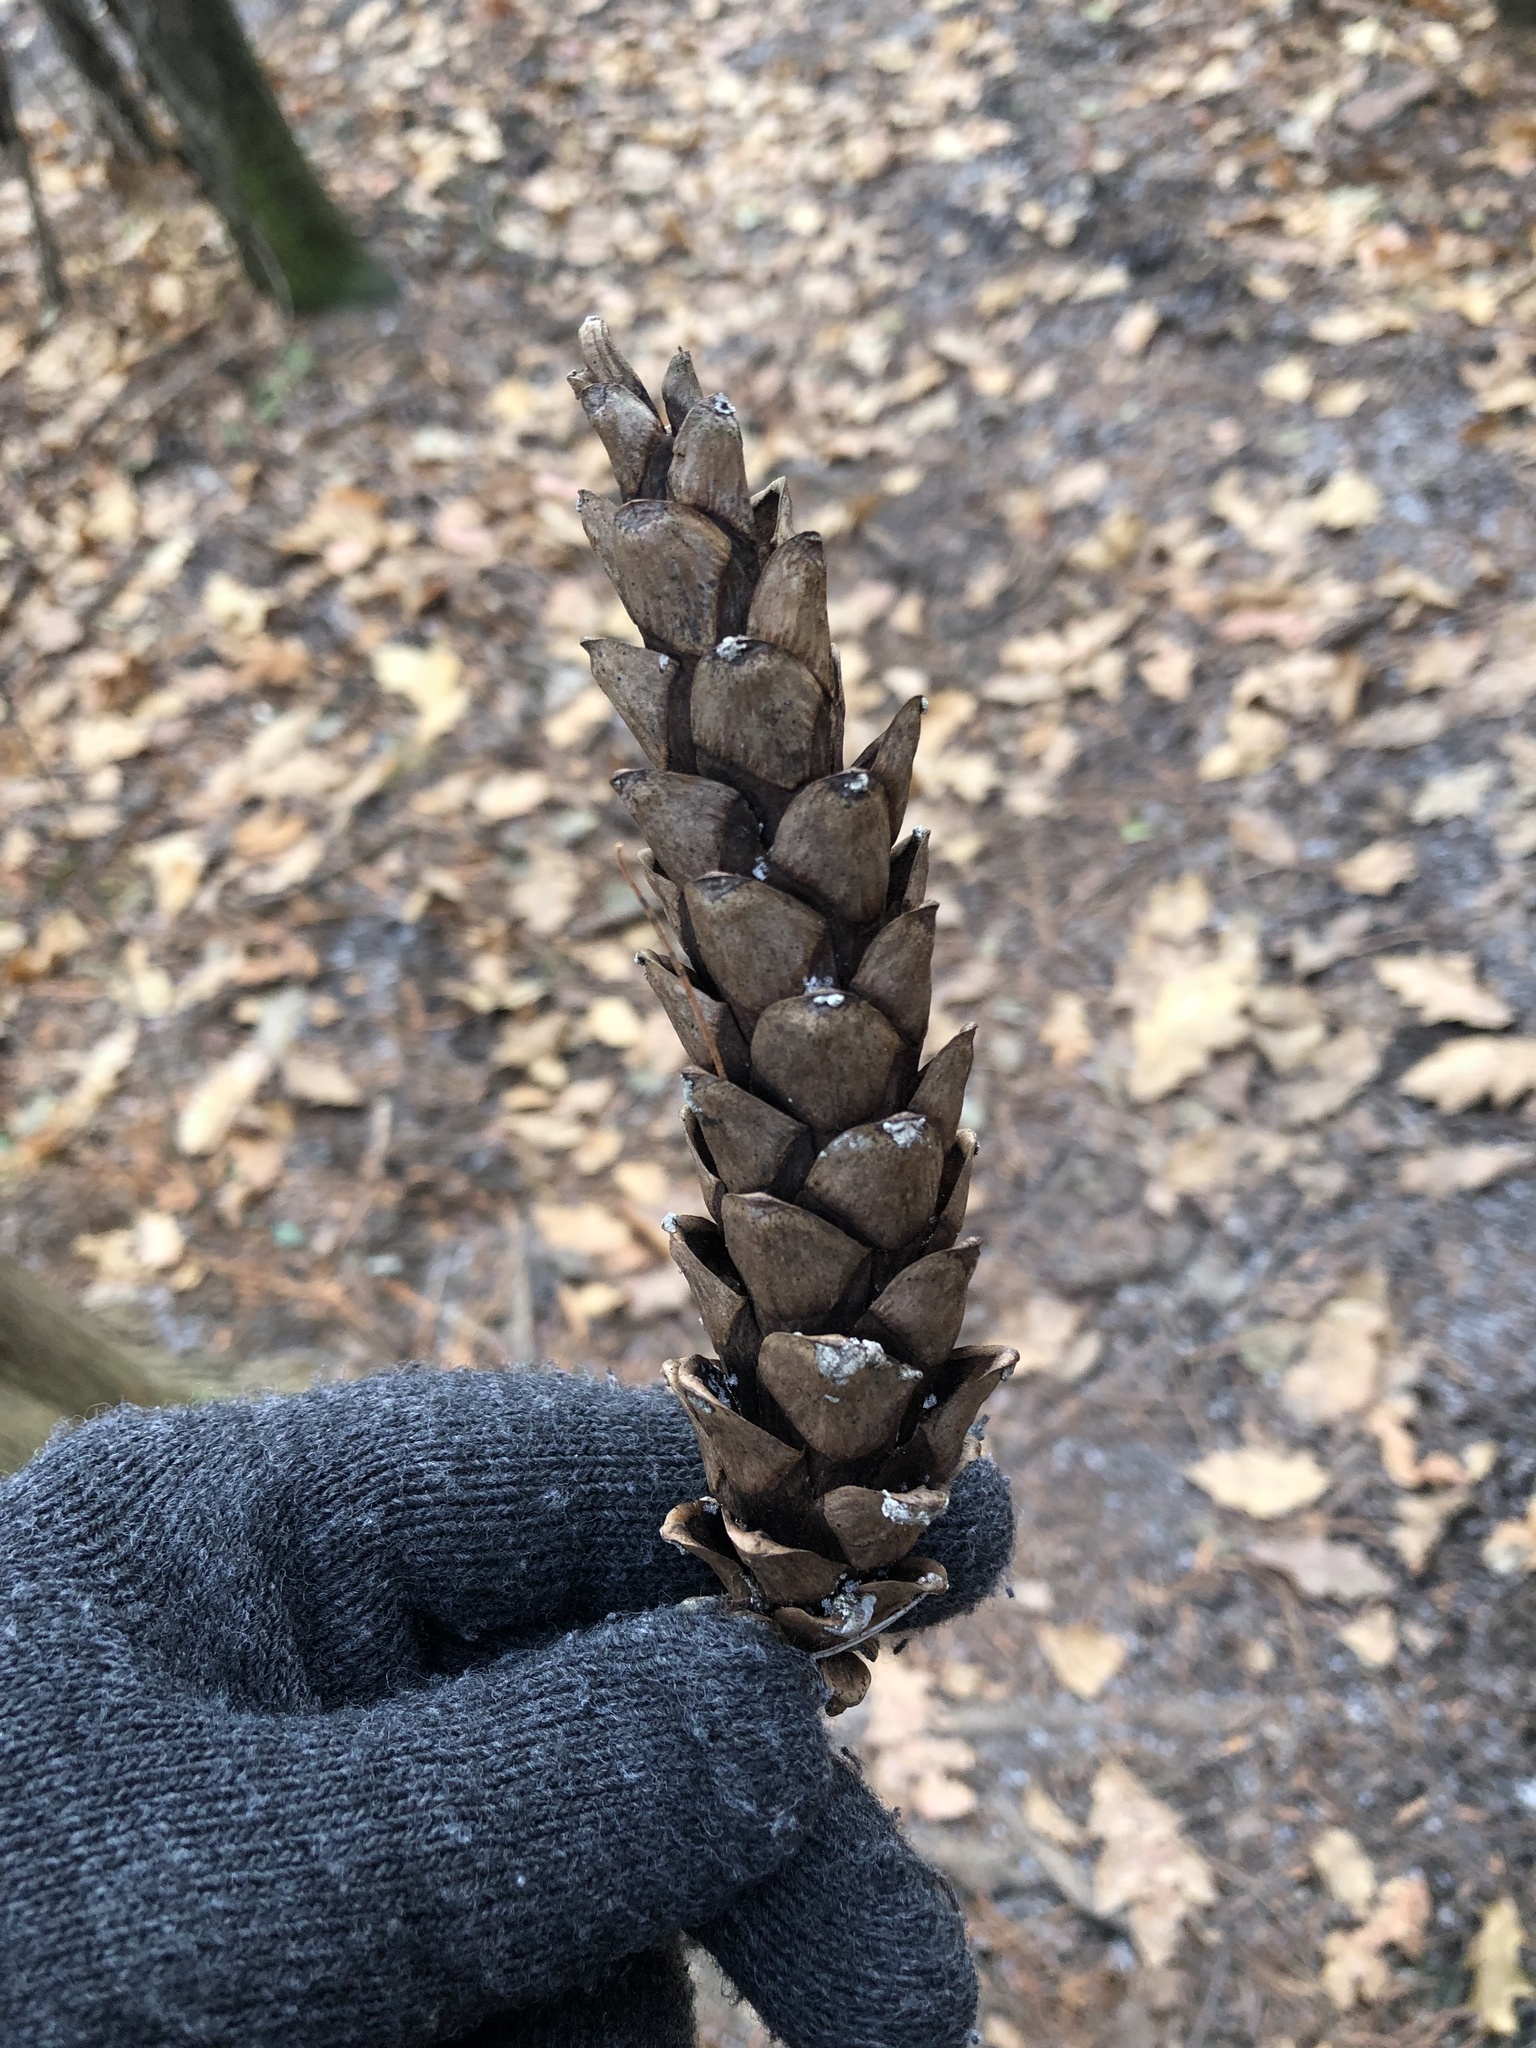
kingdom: Plantae
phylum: Tracheophyta
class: Pinopsida
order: Pinales
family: Pinaceae
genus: Pinus
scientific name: Pinus strobus
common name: Weymouth pine
